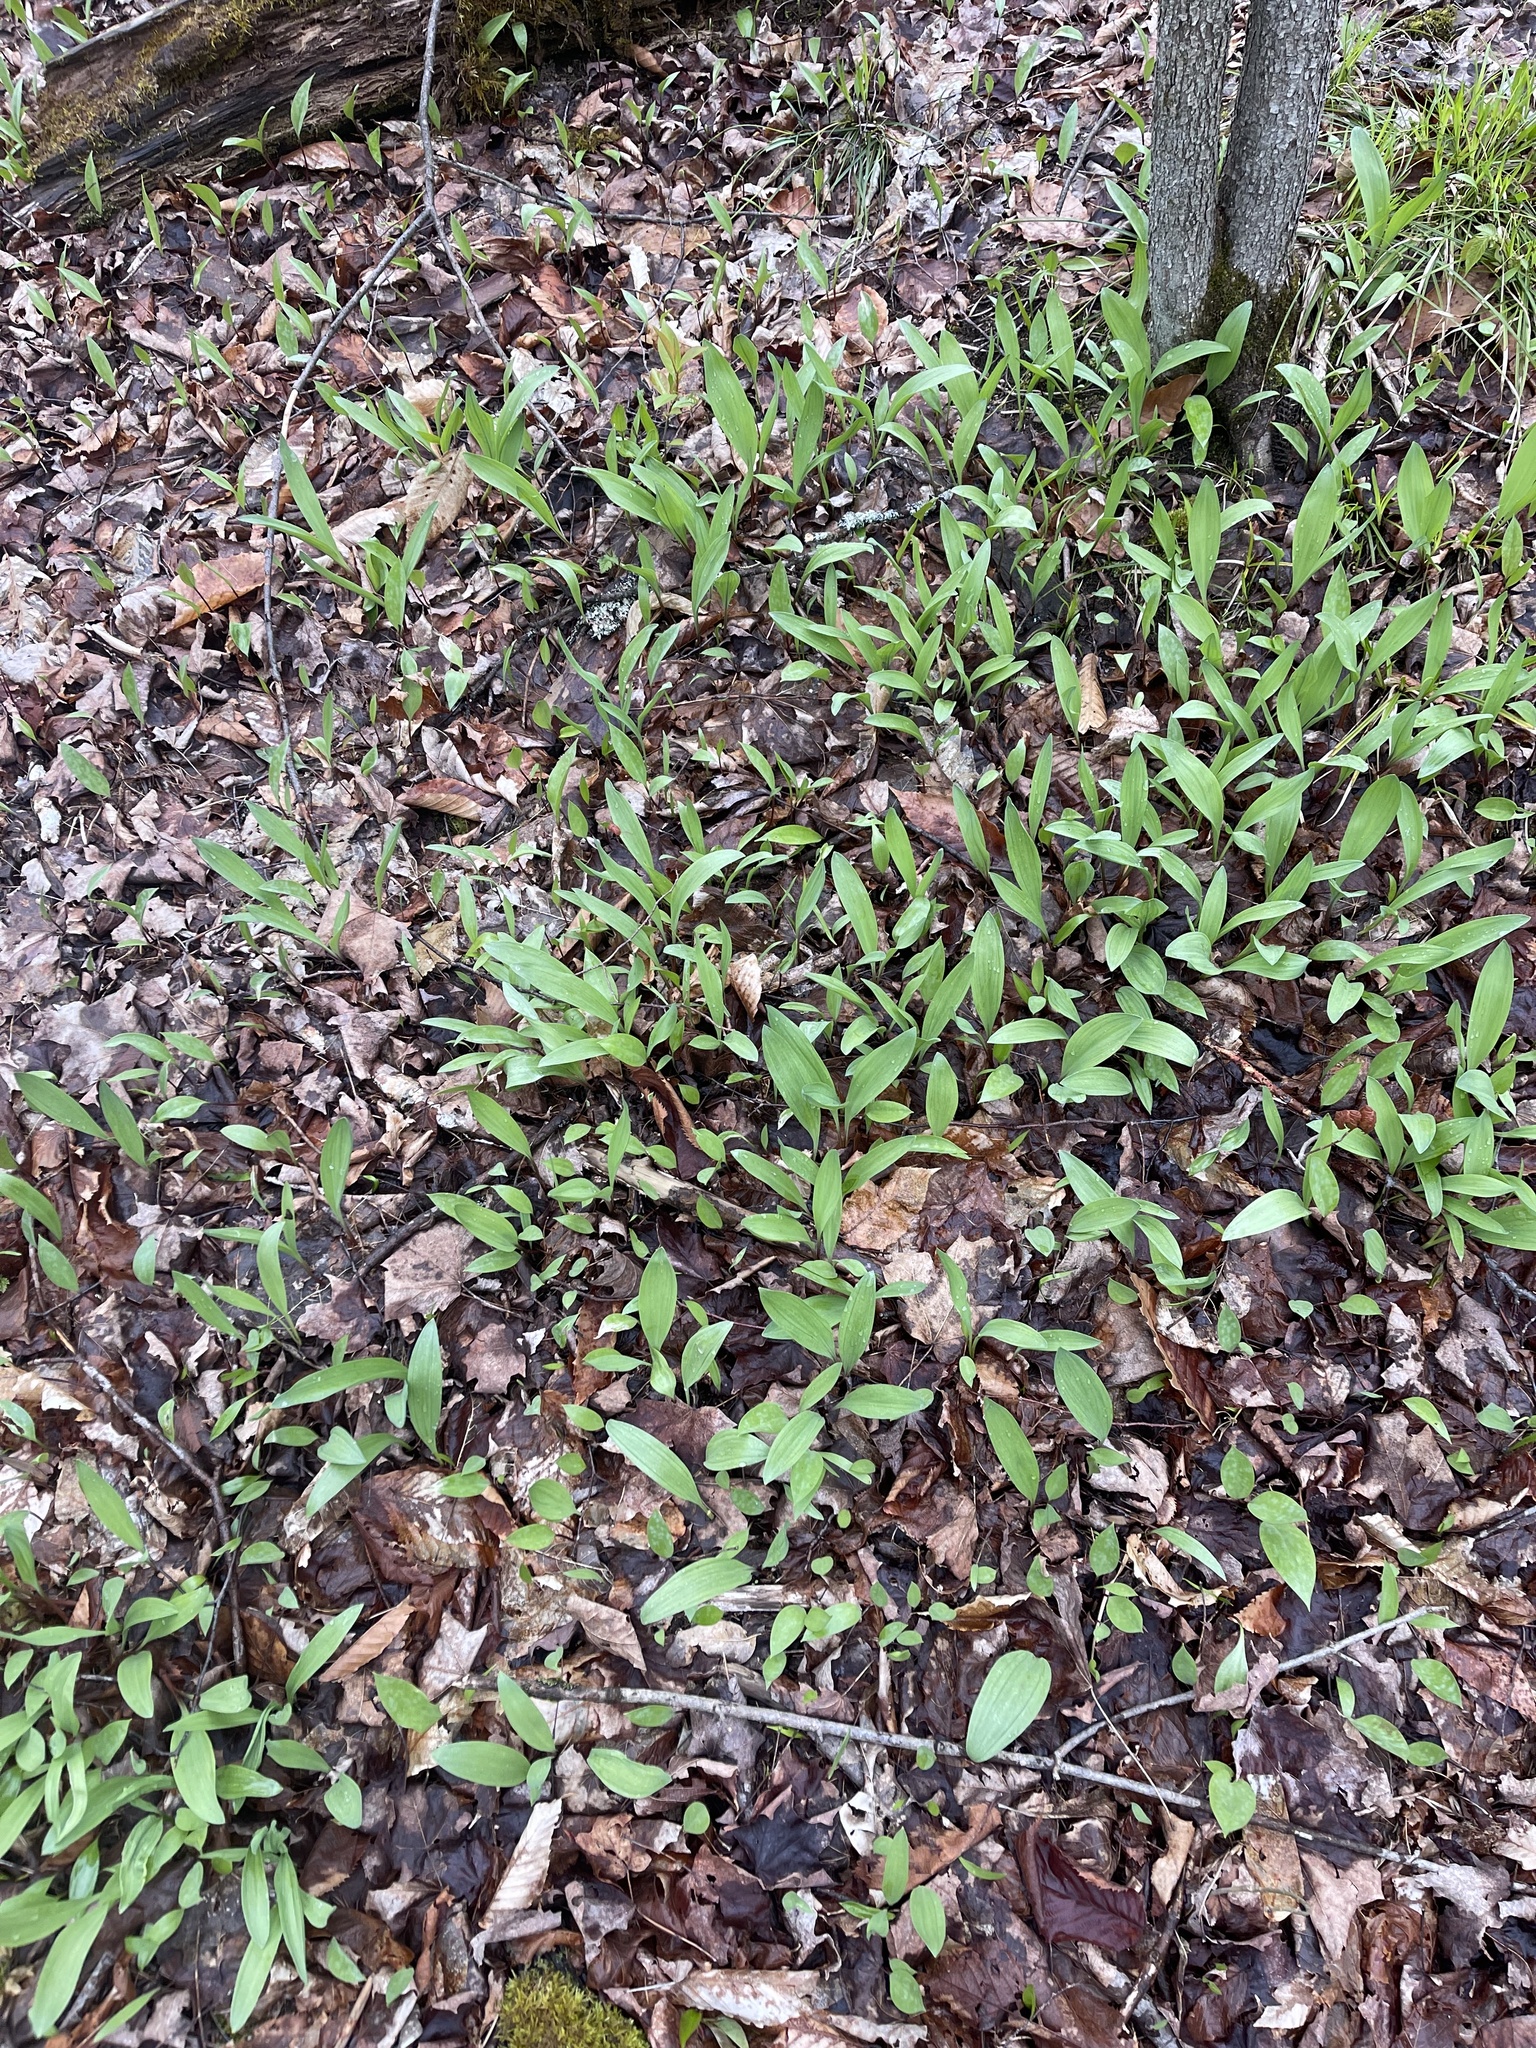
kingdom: Plantae
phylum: Tracheophyta
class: Liliopsida
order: Asparagales
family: Amaryllidaceae
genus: Allium
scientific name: Allium tricoccum
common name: Ramp
